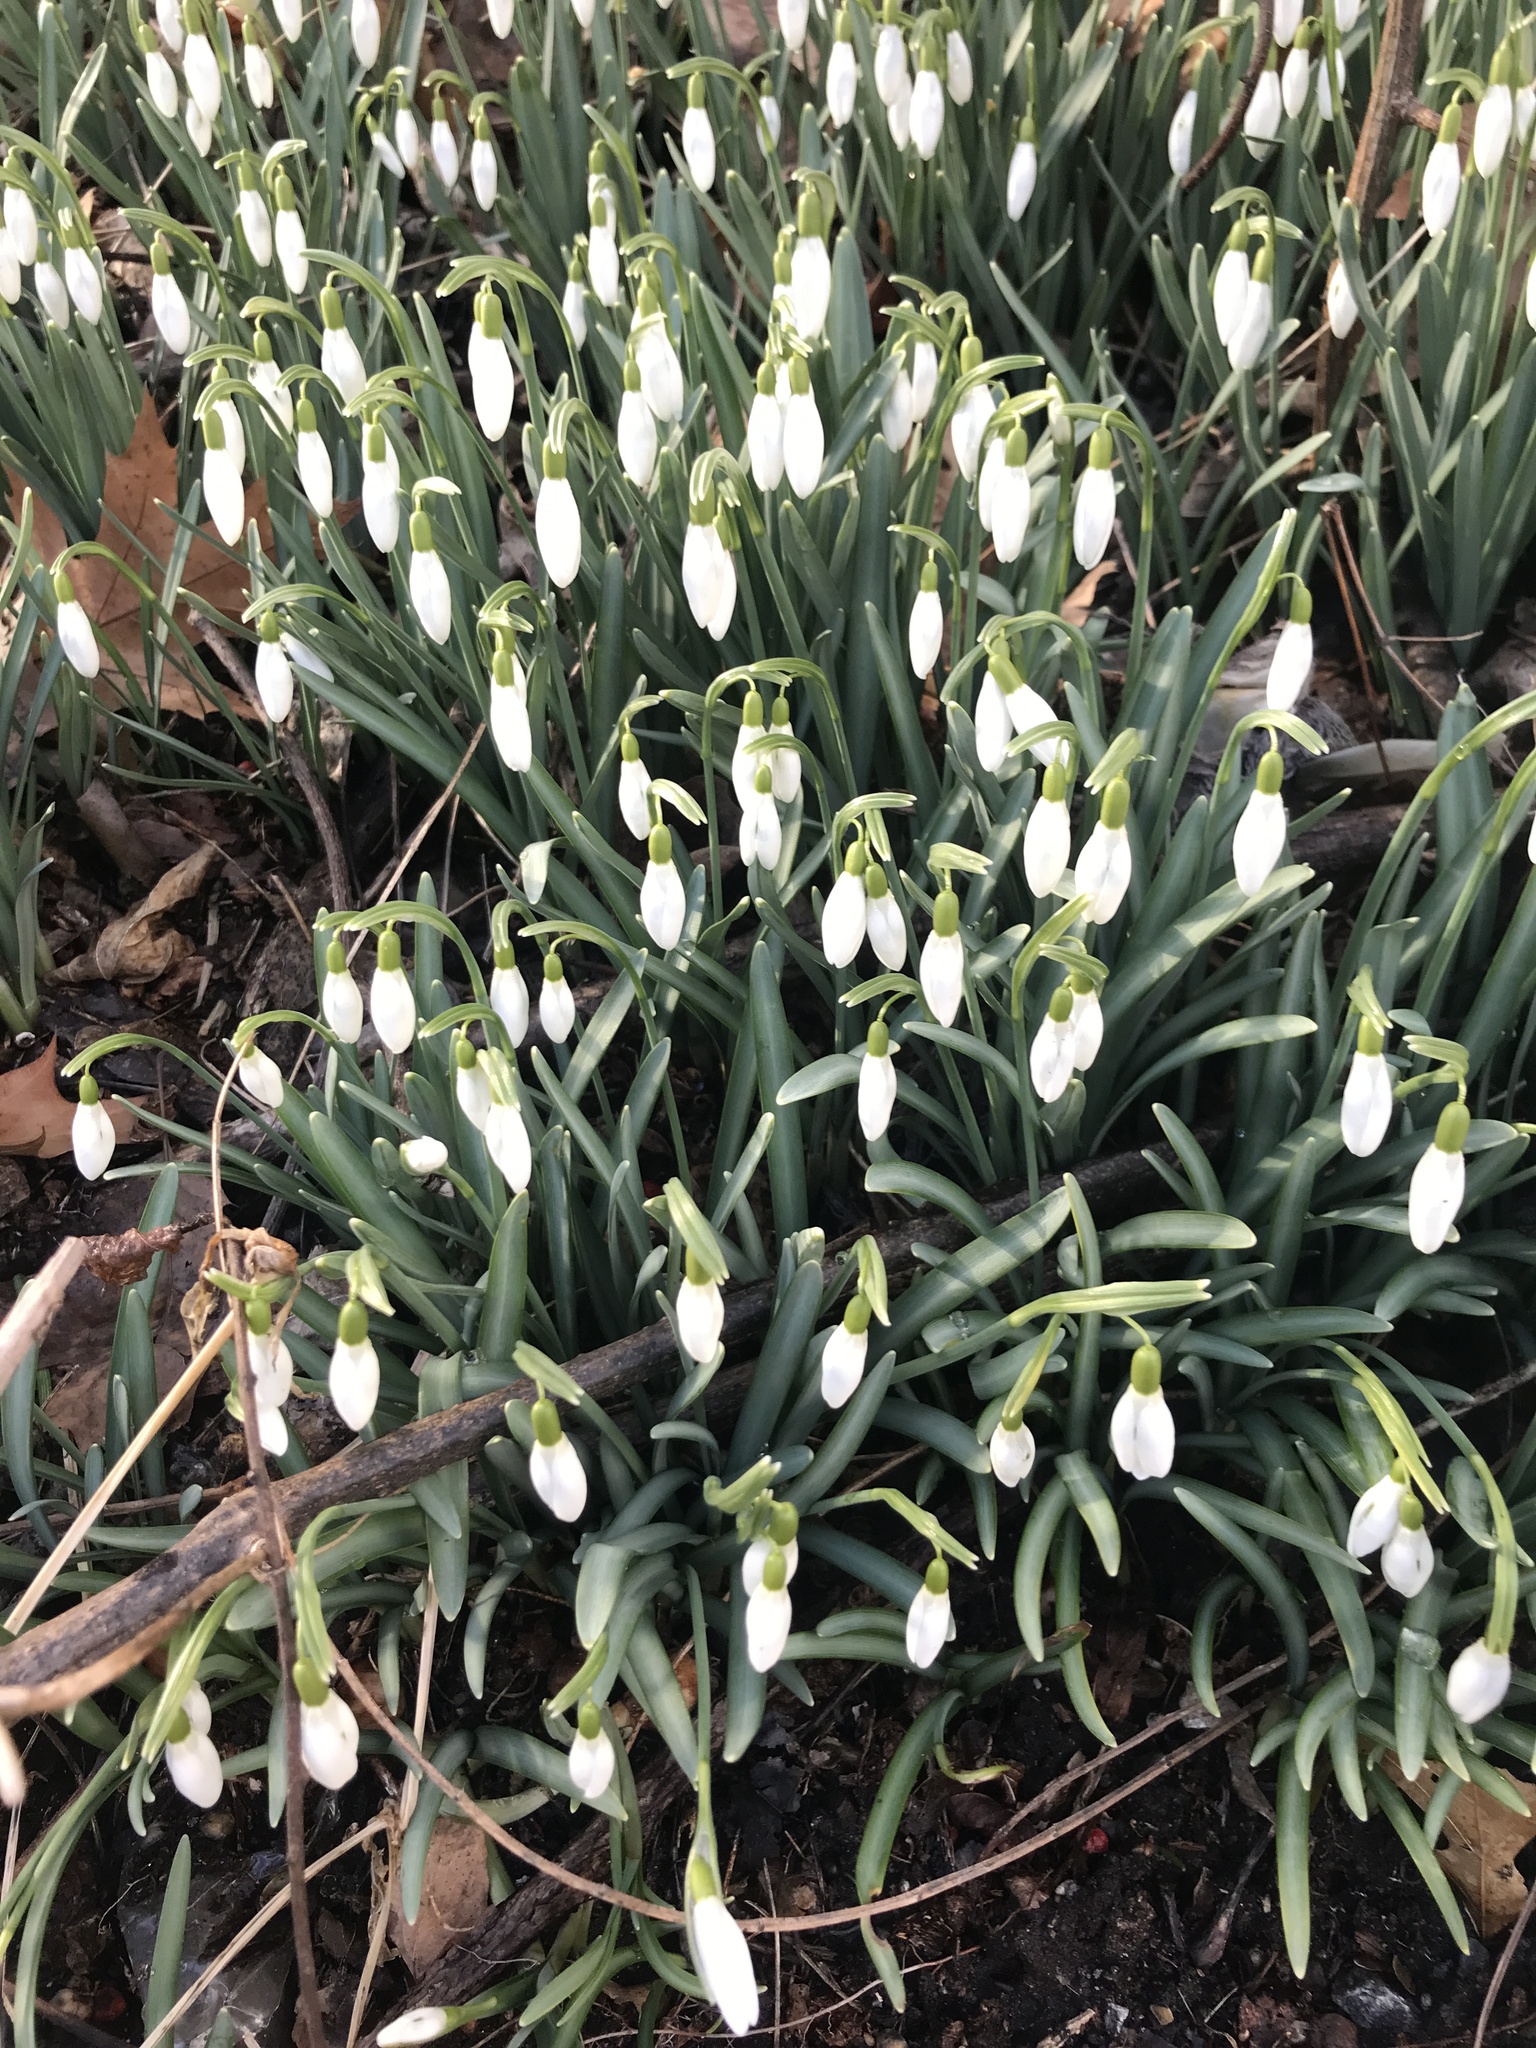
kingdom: Plantae
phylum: Tracheophyta
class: Liliopsida
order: Asparagales
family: Amaryllidaceae
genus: Galanthus
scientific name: Galanthus nivalis
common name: Snowdrop
